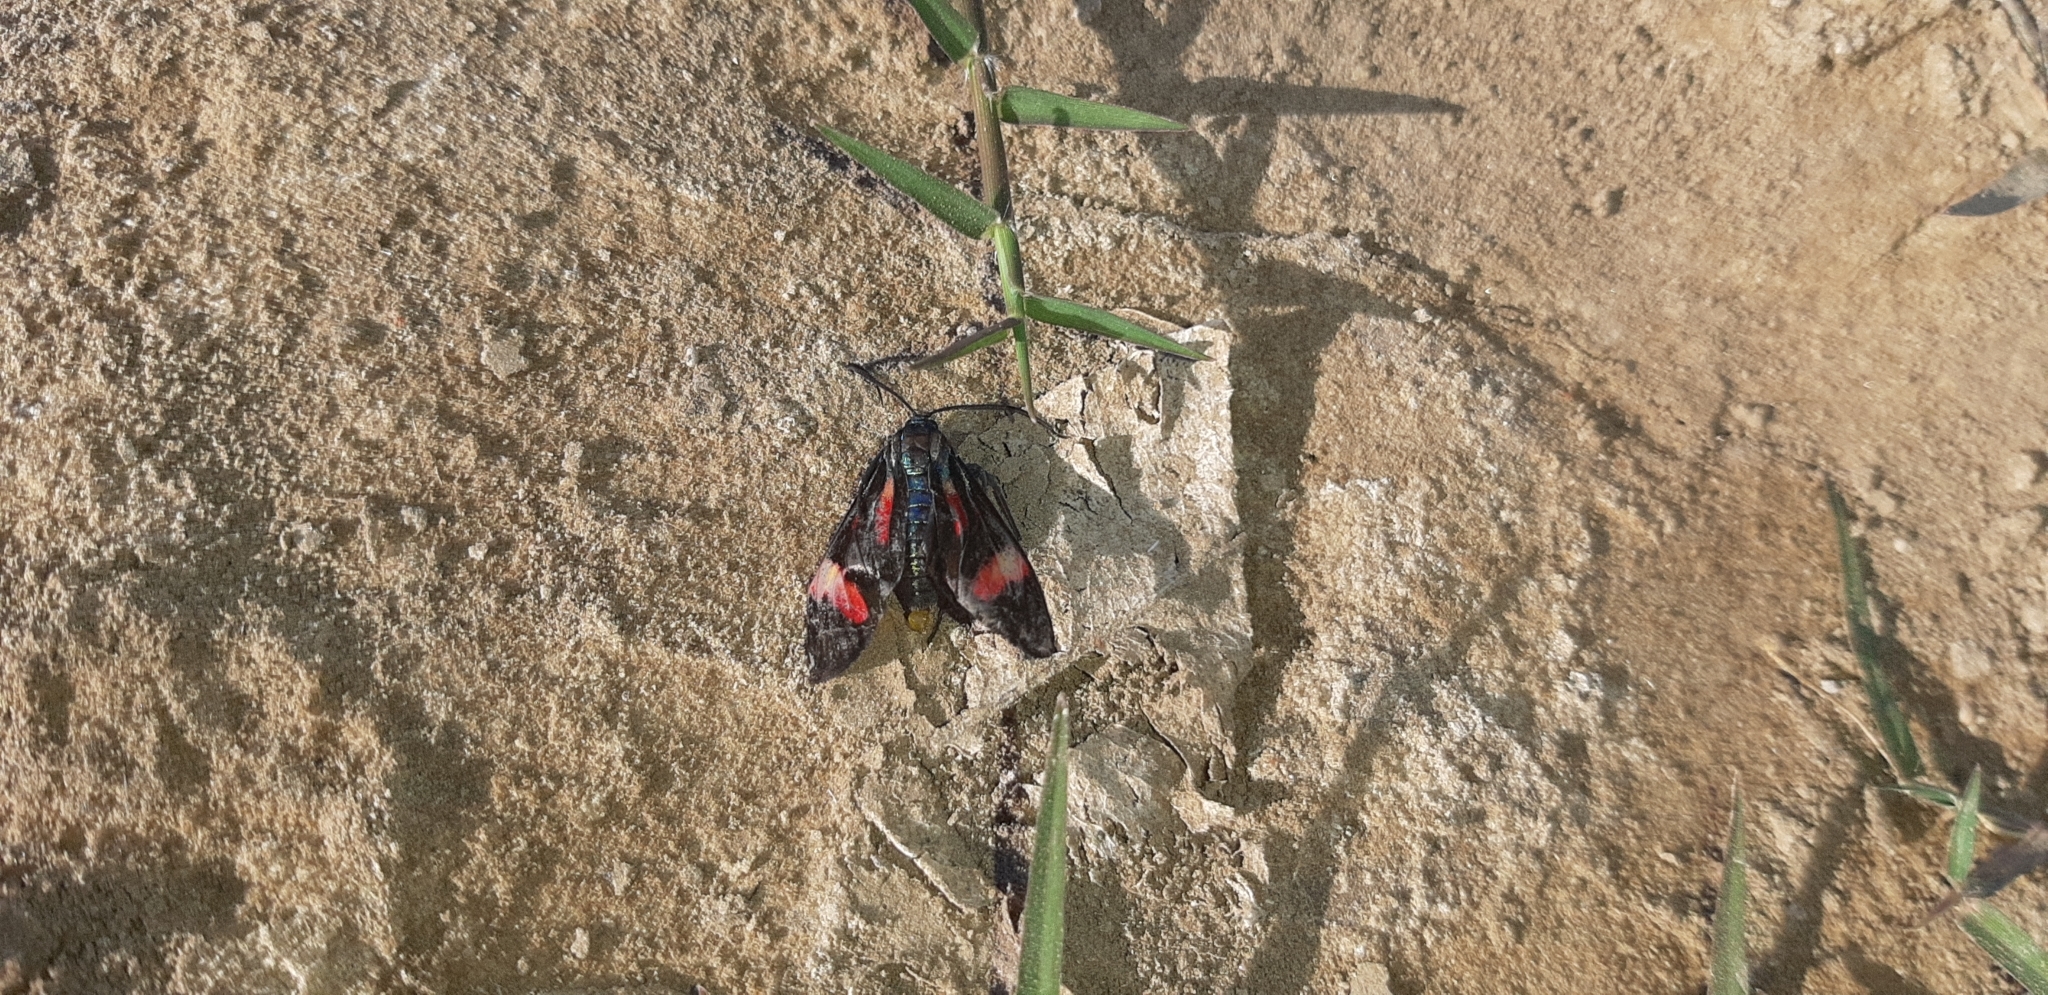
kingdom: Animalia
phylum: Arthropoda
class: Insecta
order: Lepidoptera
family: Erebidae
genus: Uranophora
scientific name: Uranophora maranhaonis
